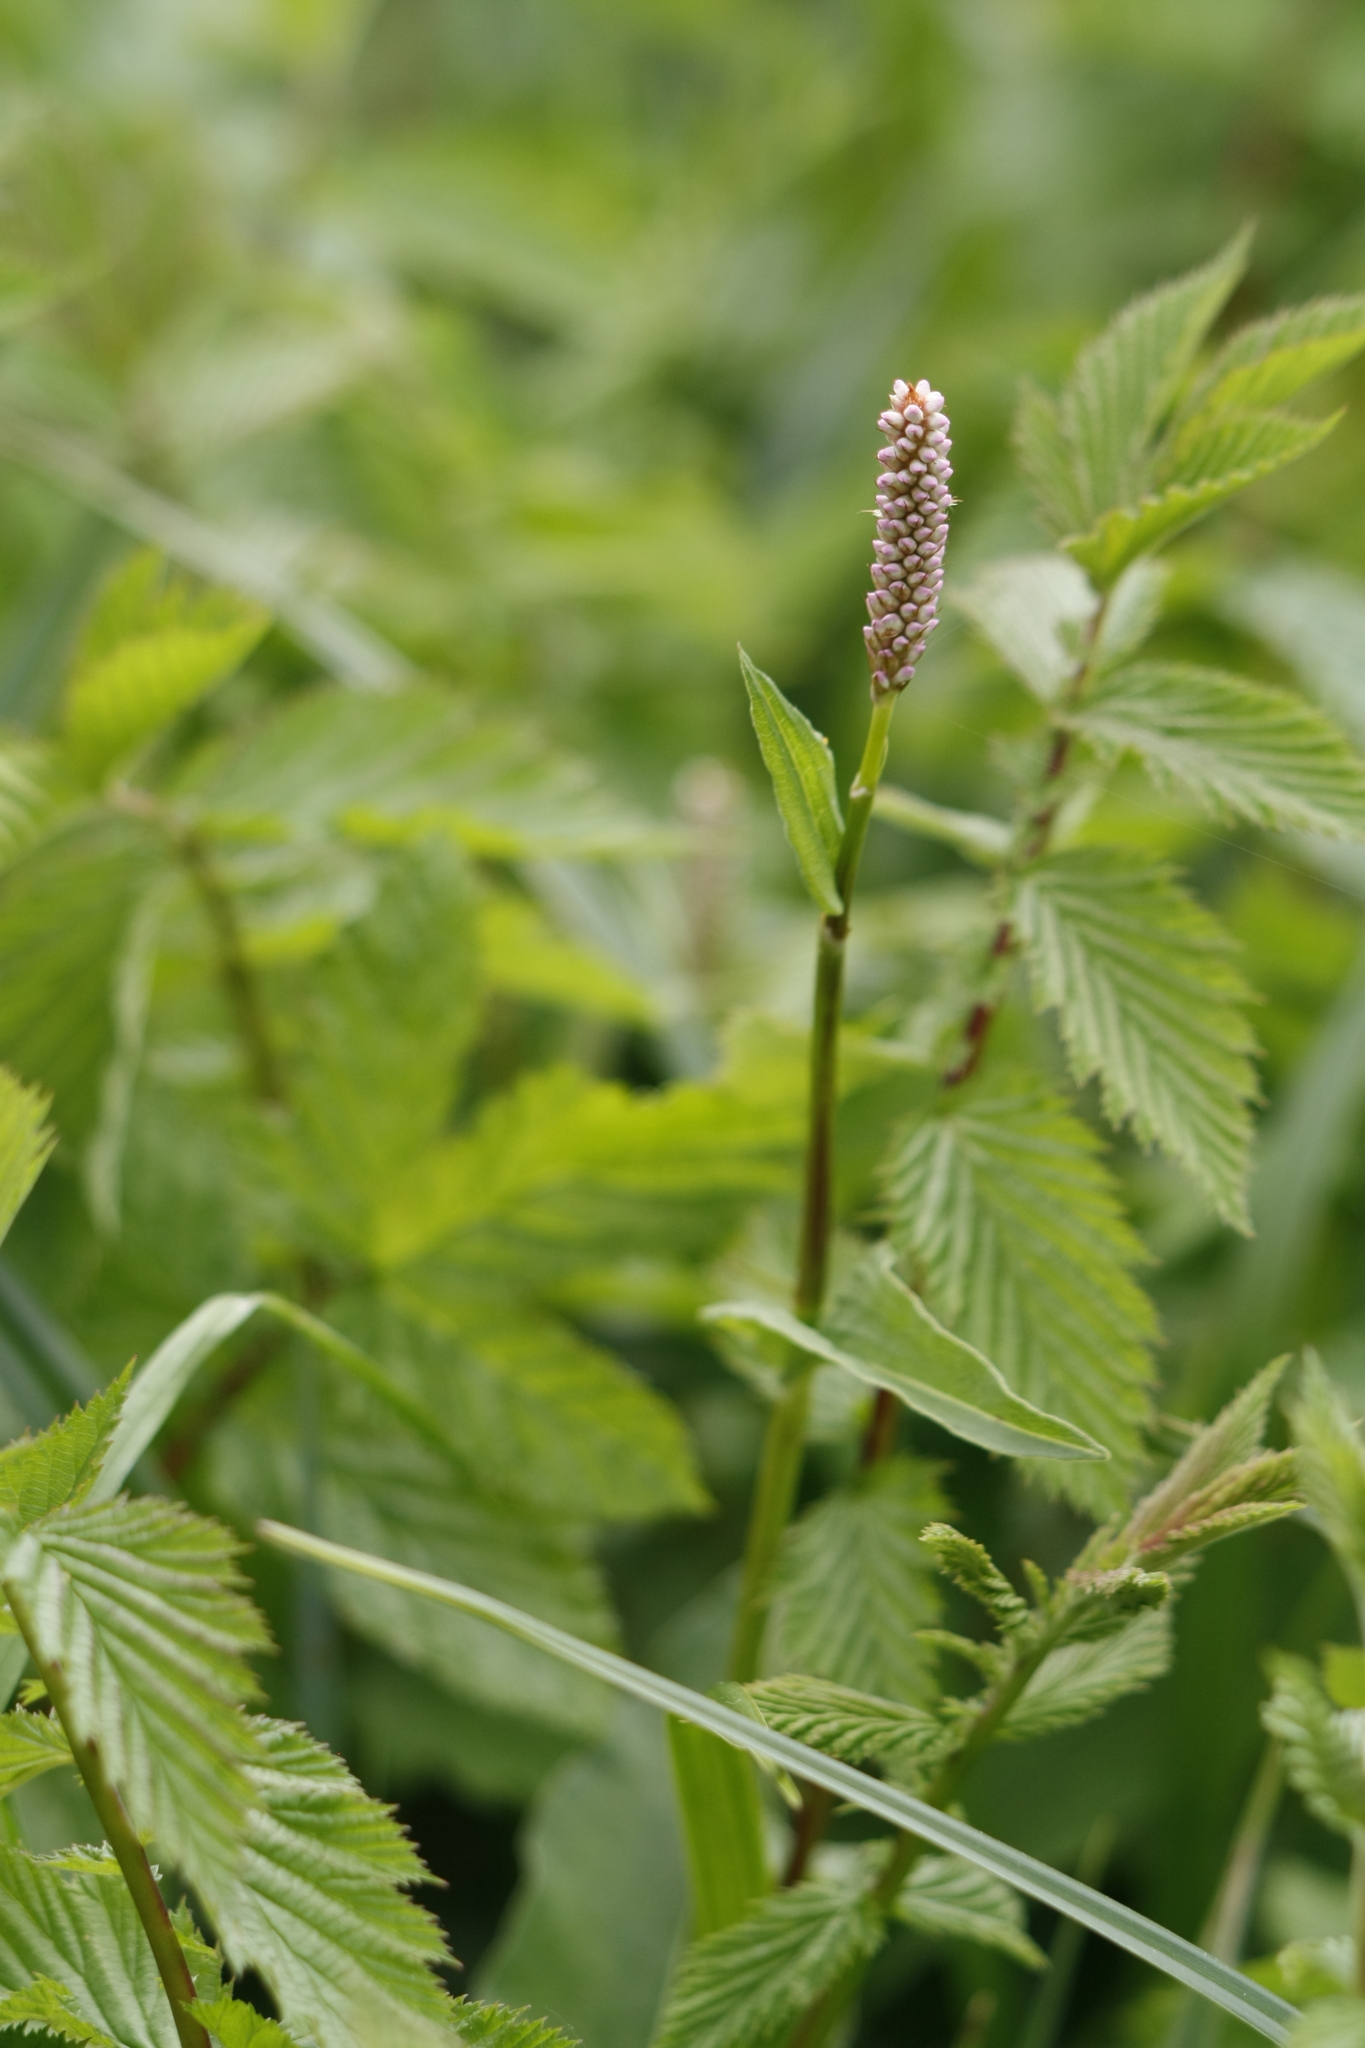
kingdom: Plantae
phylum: Tracheophyta
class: Magnoliopsida
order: Caryophyllales
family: Polygonaceae
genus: Bistorta
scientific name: Bistorta officinalis
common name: Common bistort
